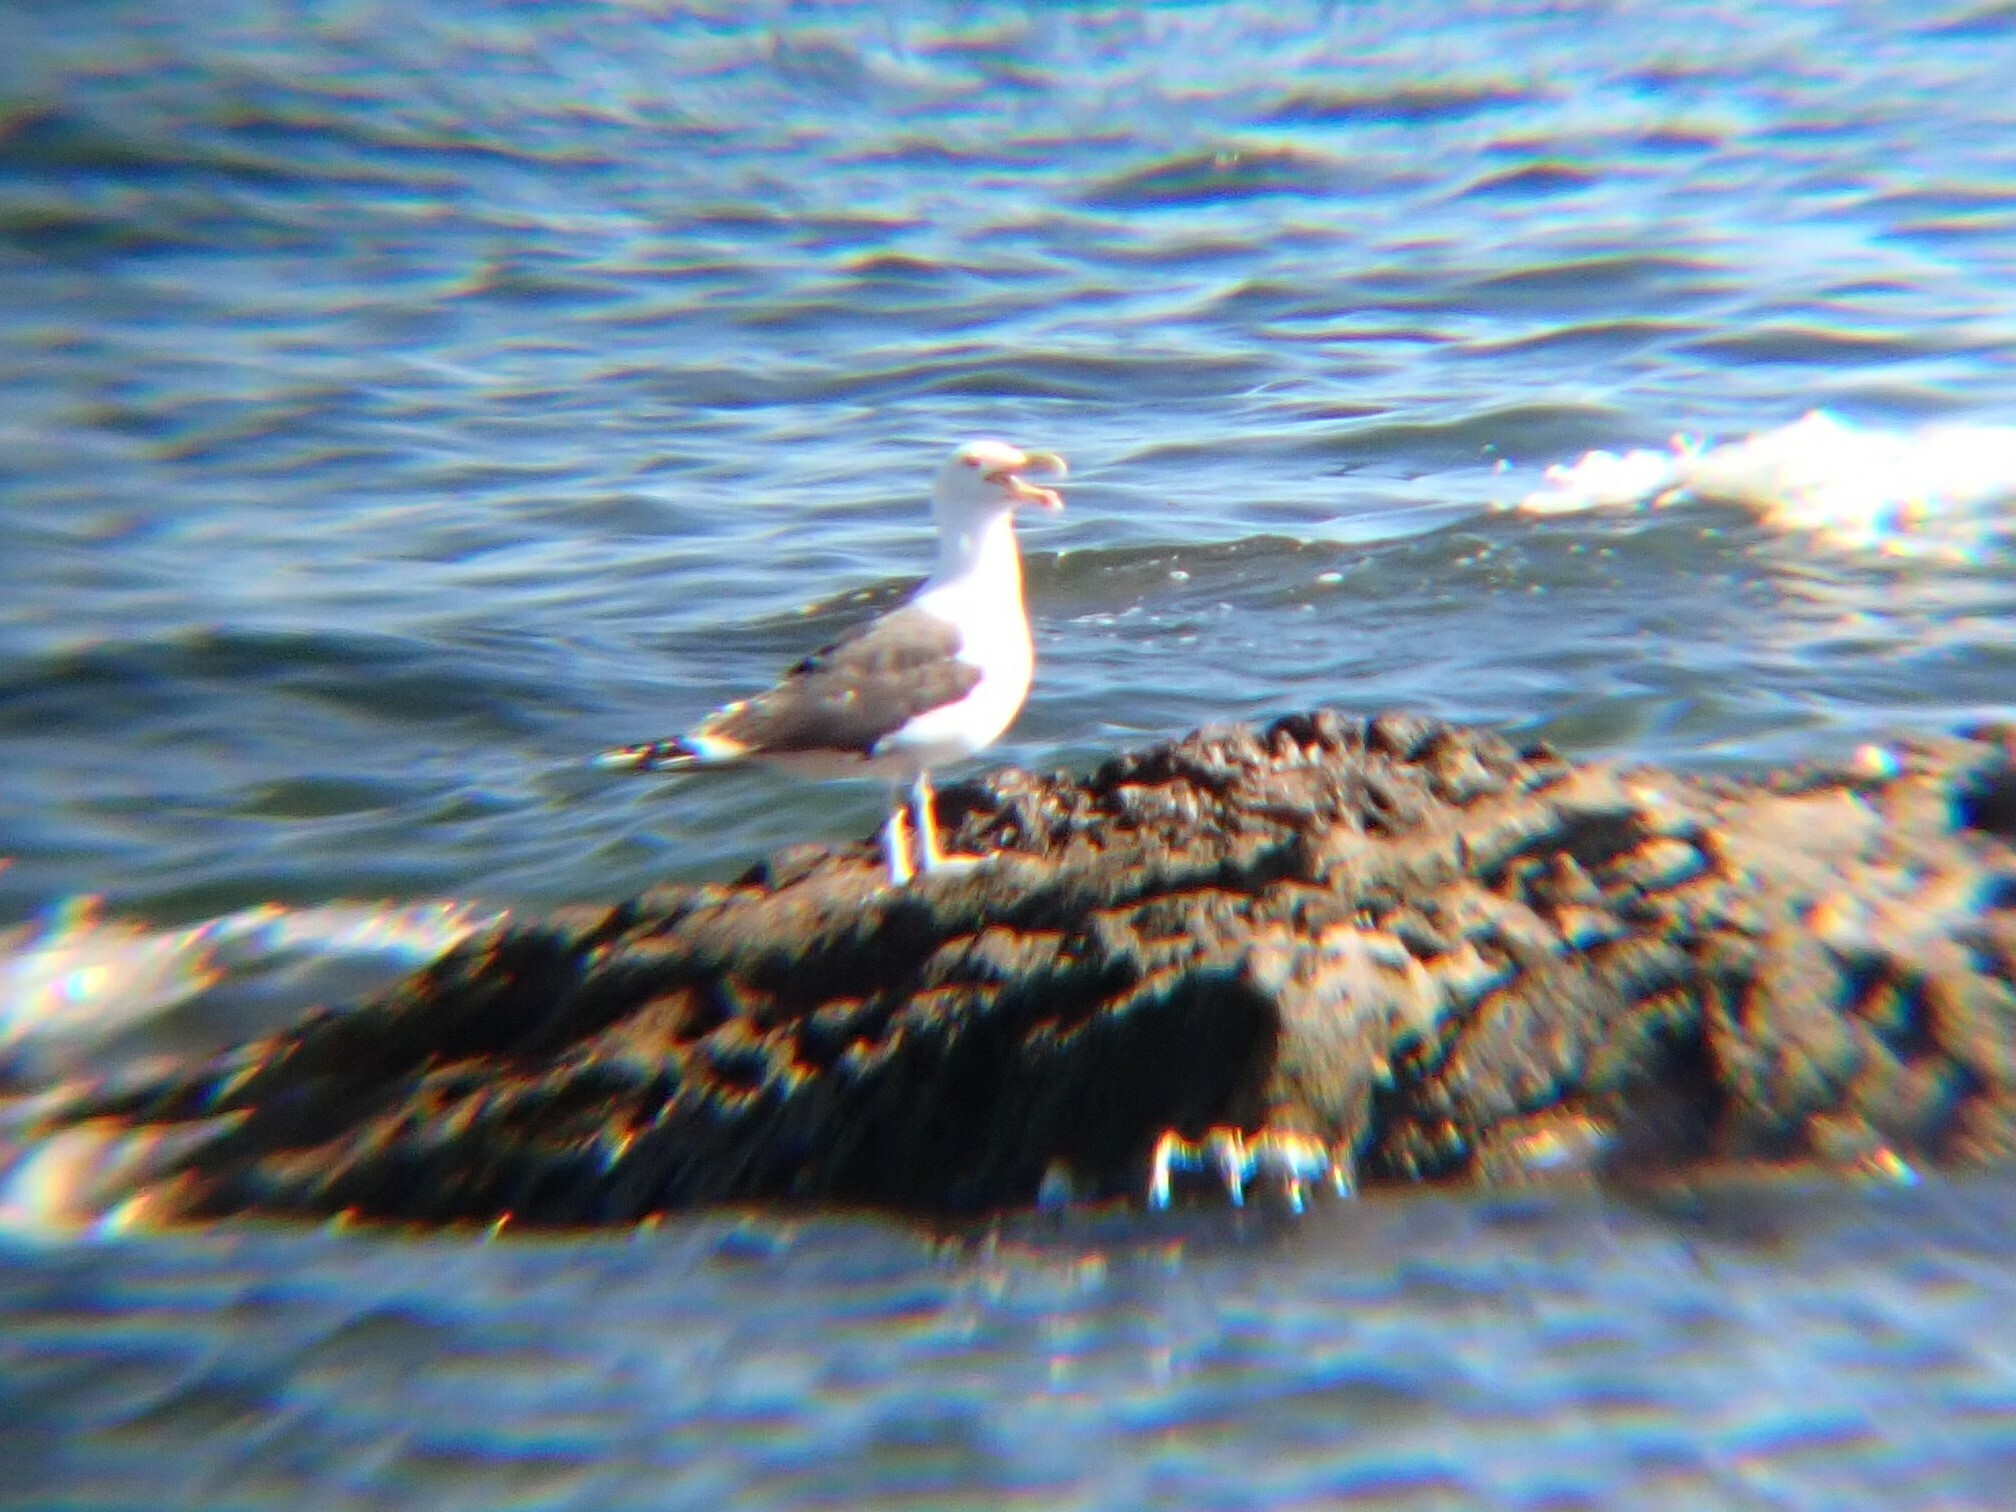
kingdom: Animalia
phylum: Chordata
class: Aves
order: Charadriiformes
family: Laridae
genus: Larus
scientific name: Larus argentatus
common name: Herring gull
